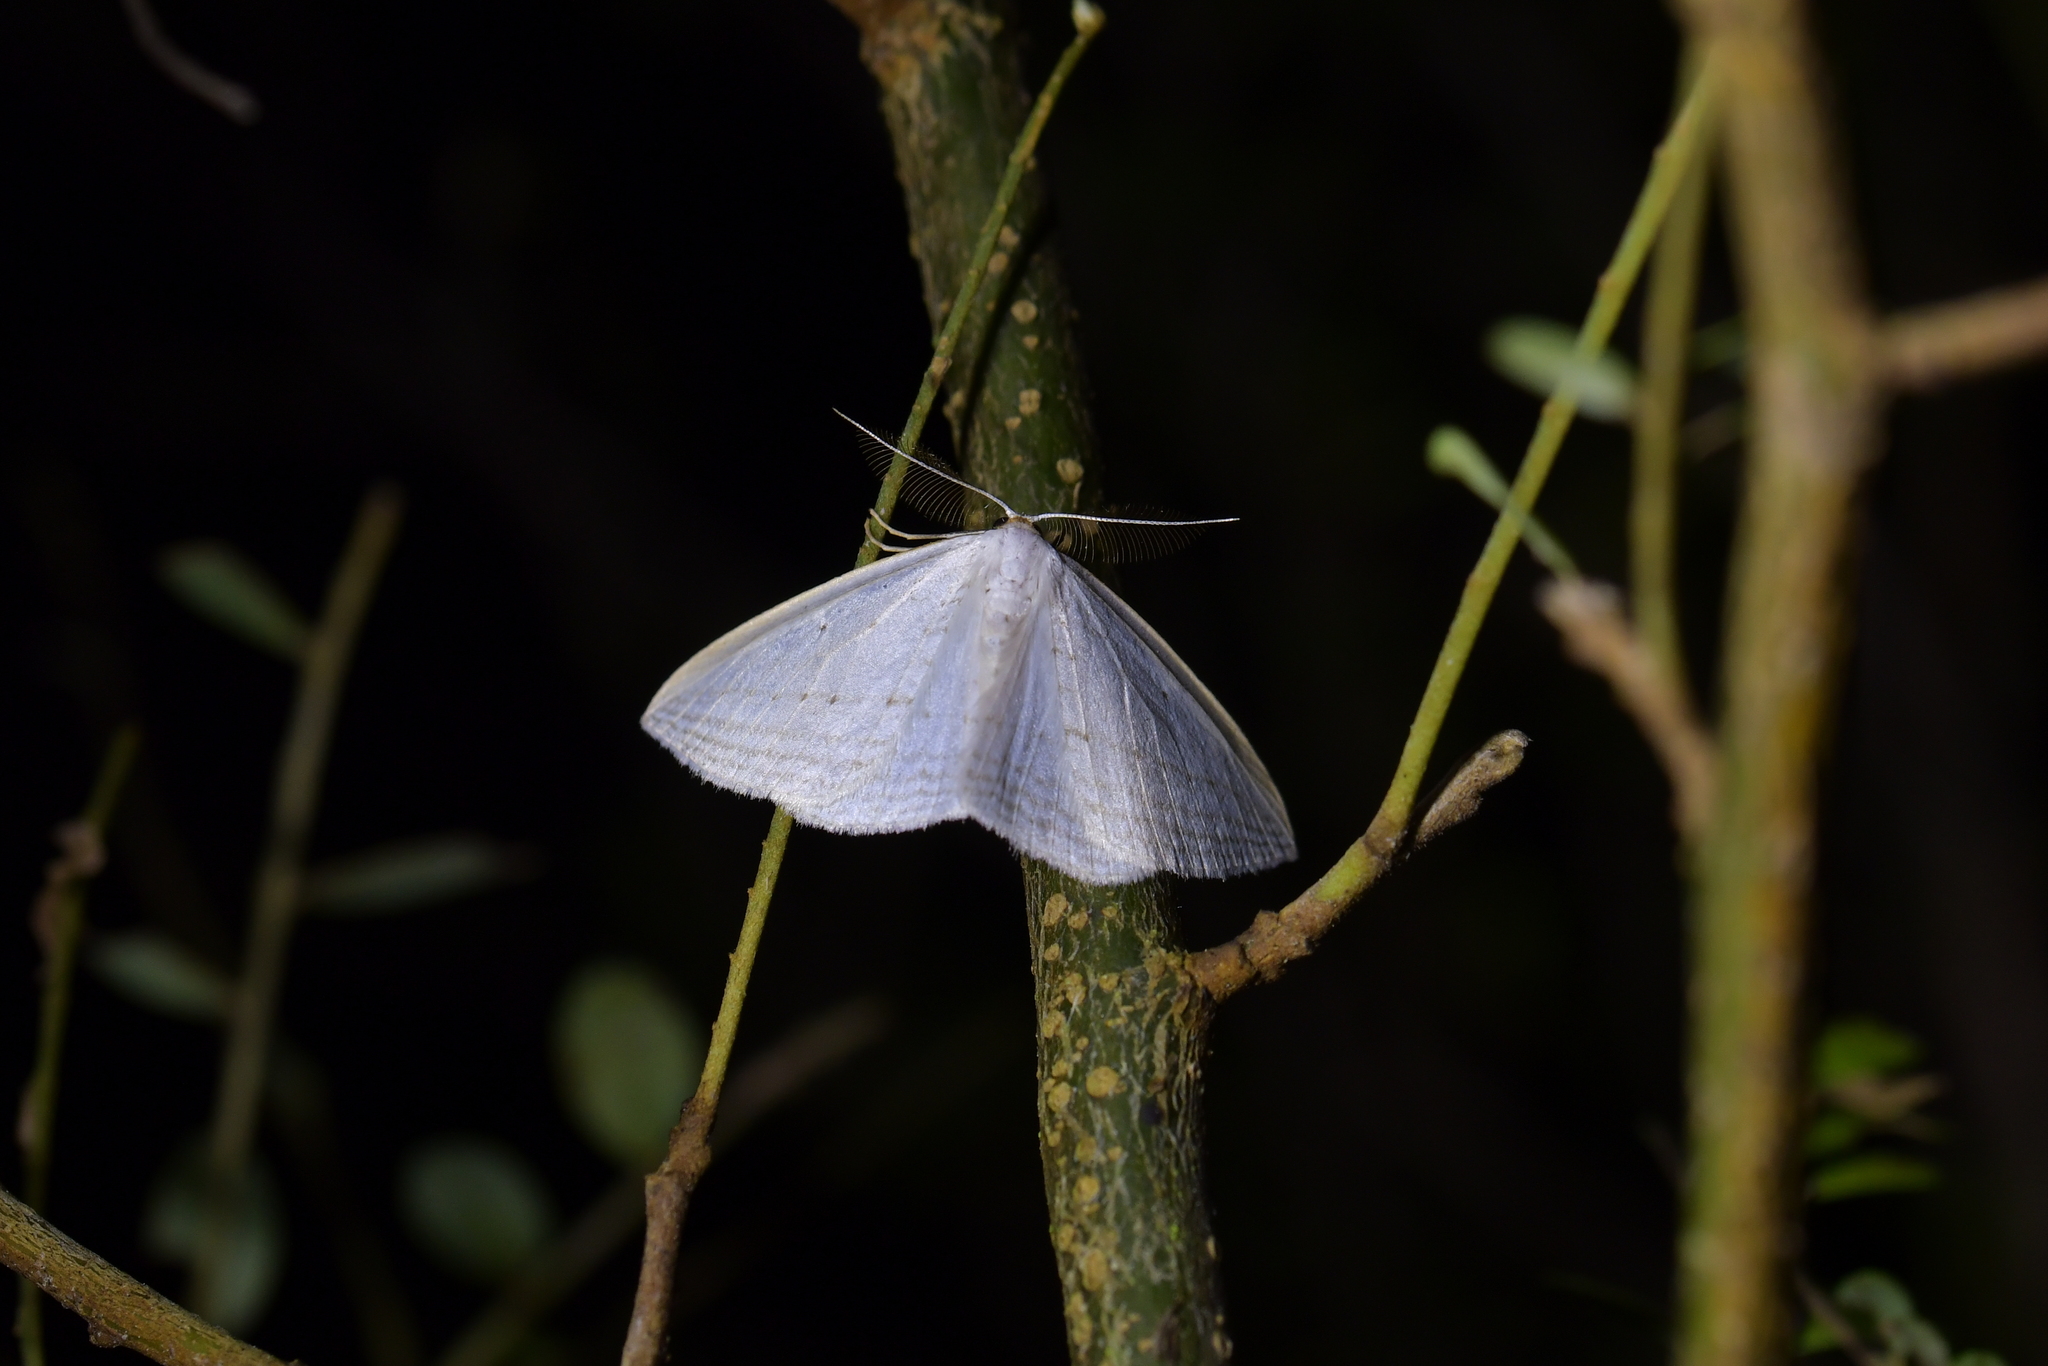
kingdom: Animalia
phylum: Arthropoda
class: Insecta
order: Lepidoptera
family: Geometridae
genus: Orthoclydon
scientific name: Orthoclydon praefectata
